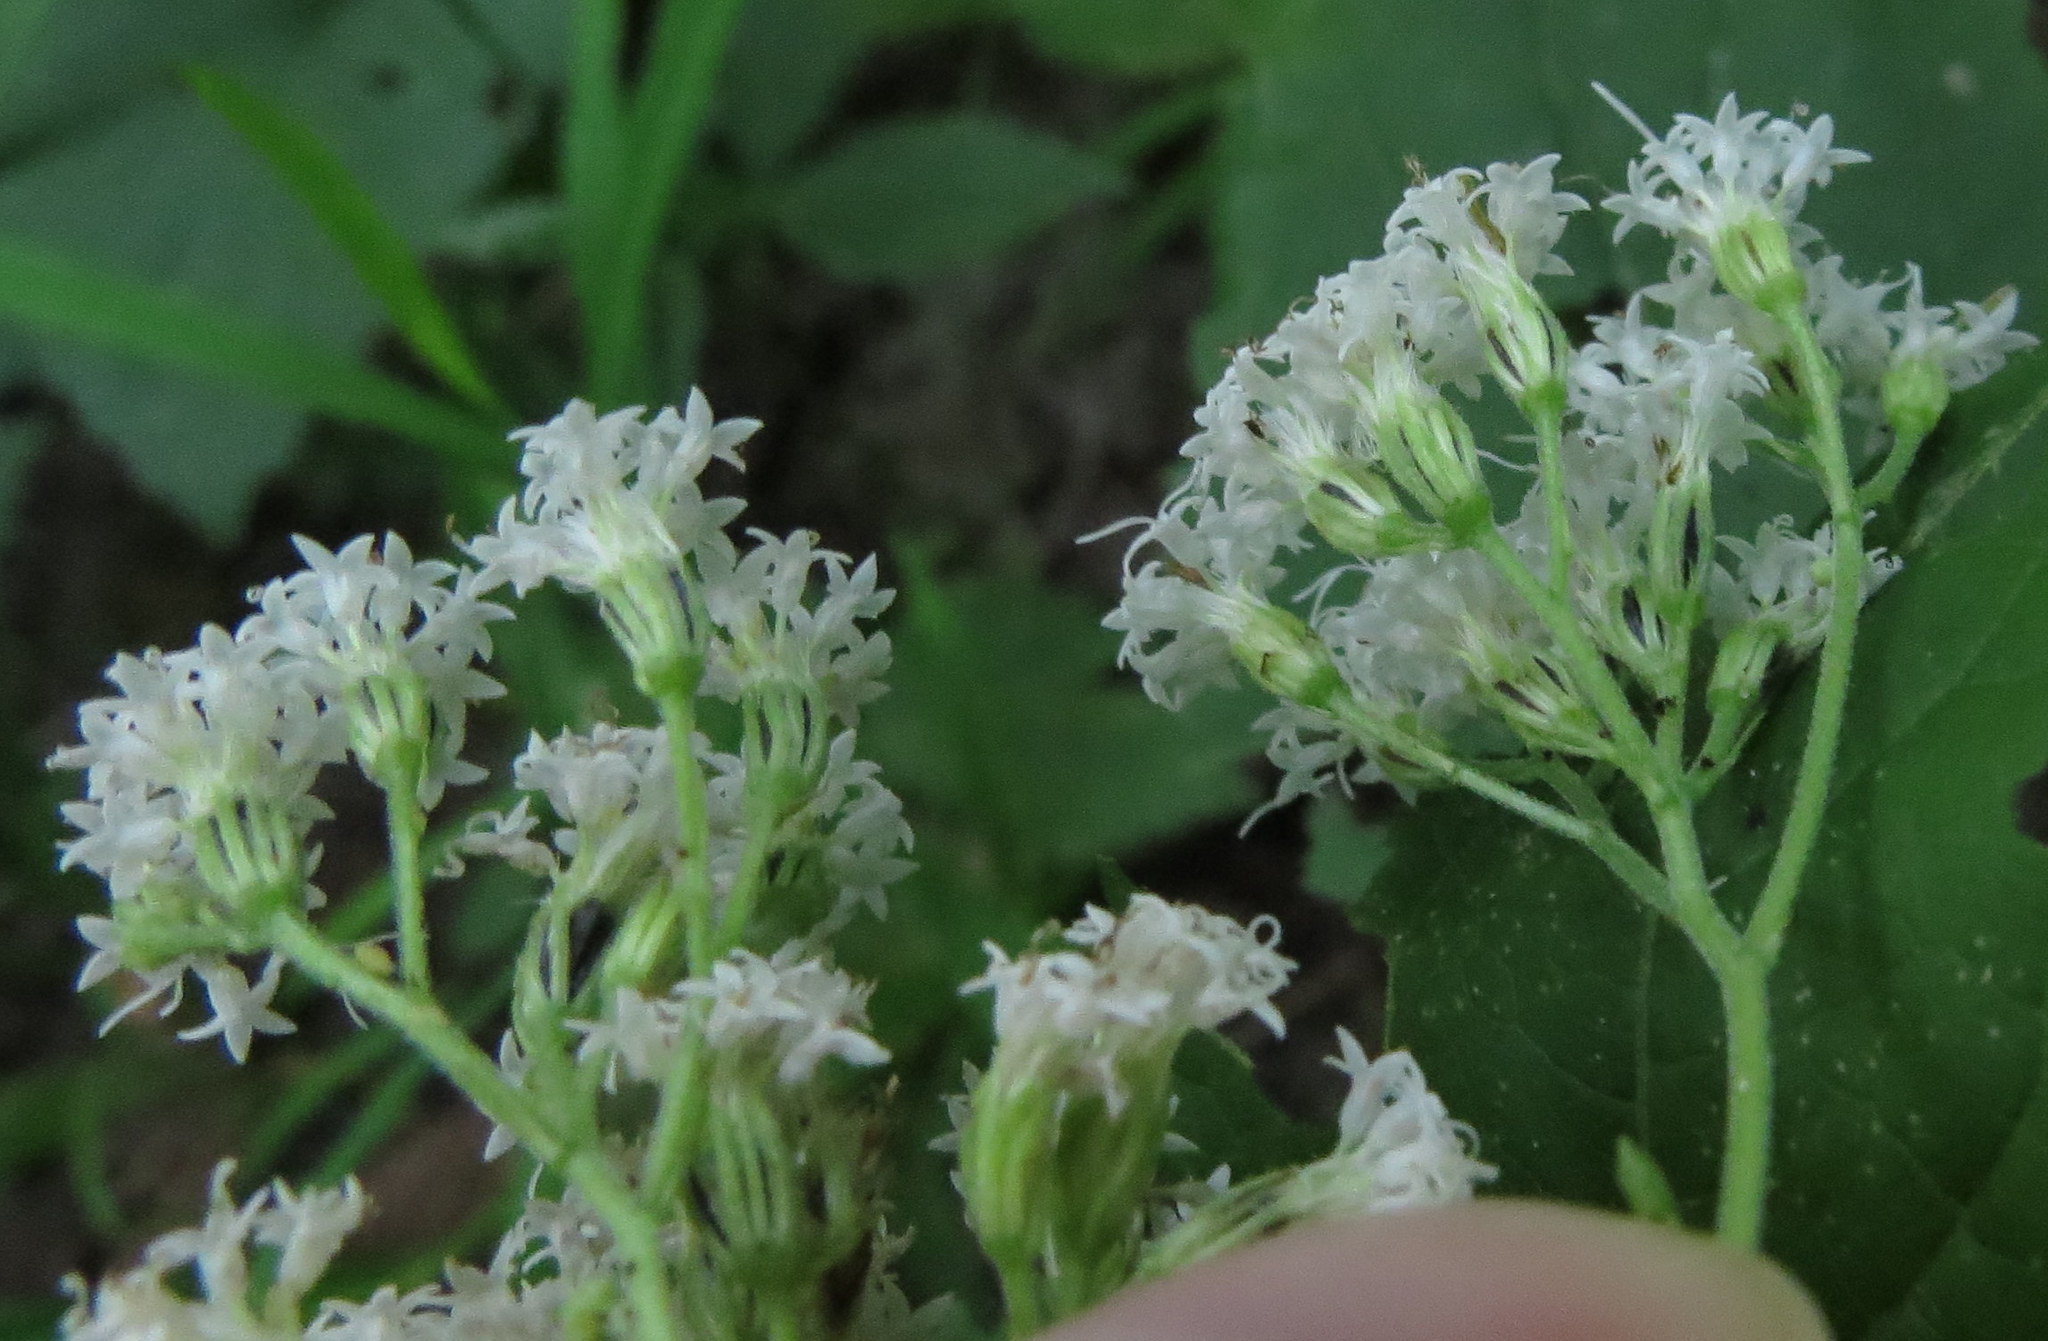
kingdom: Plantae
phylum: Tracheophyta
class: Magnoliopsida
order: Asterales
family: Asteraceae
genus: Ageratina
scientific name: Ageratina altissima
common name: White snakeroot
